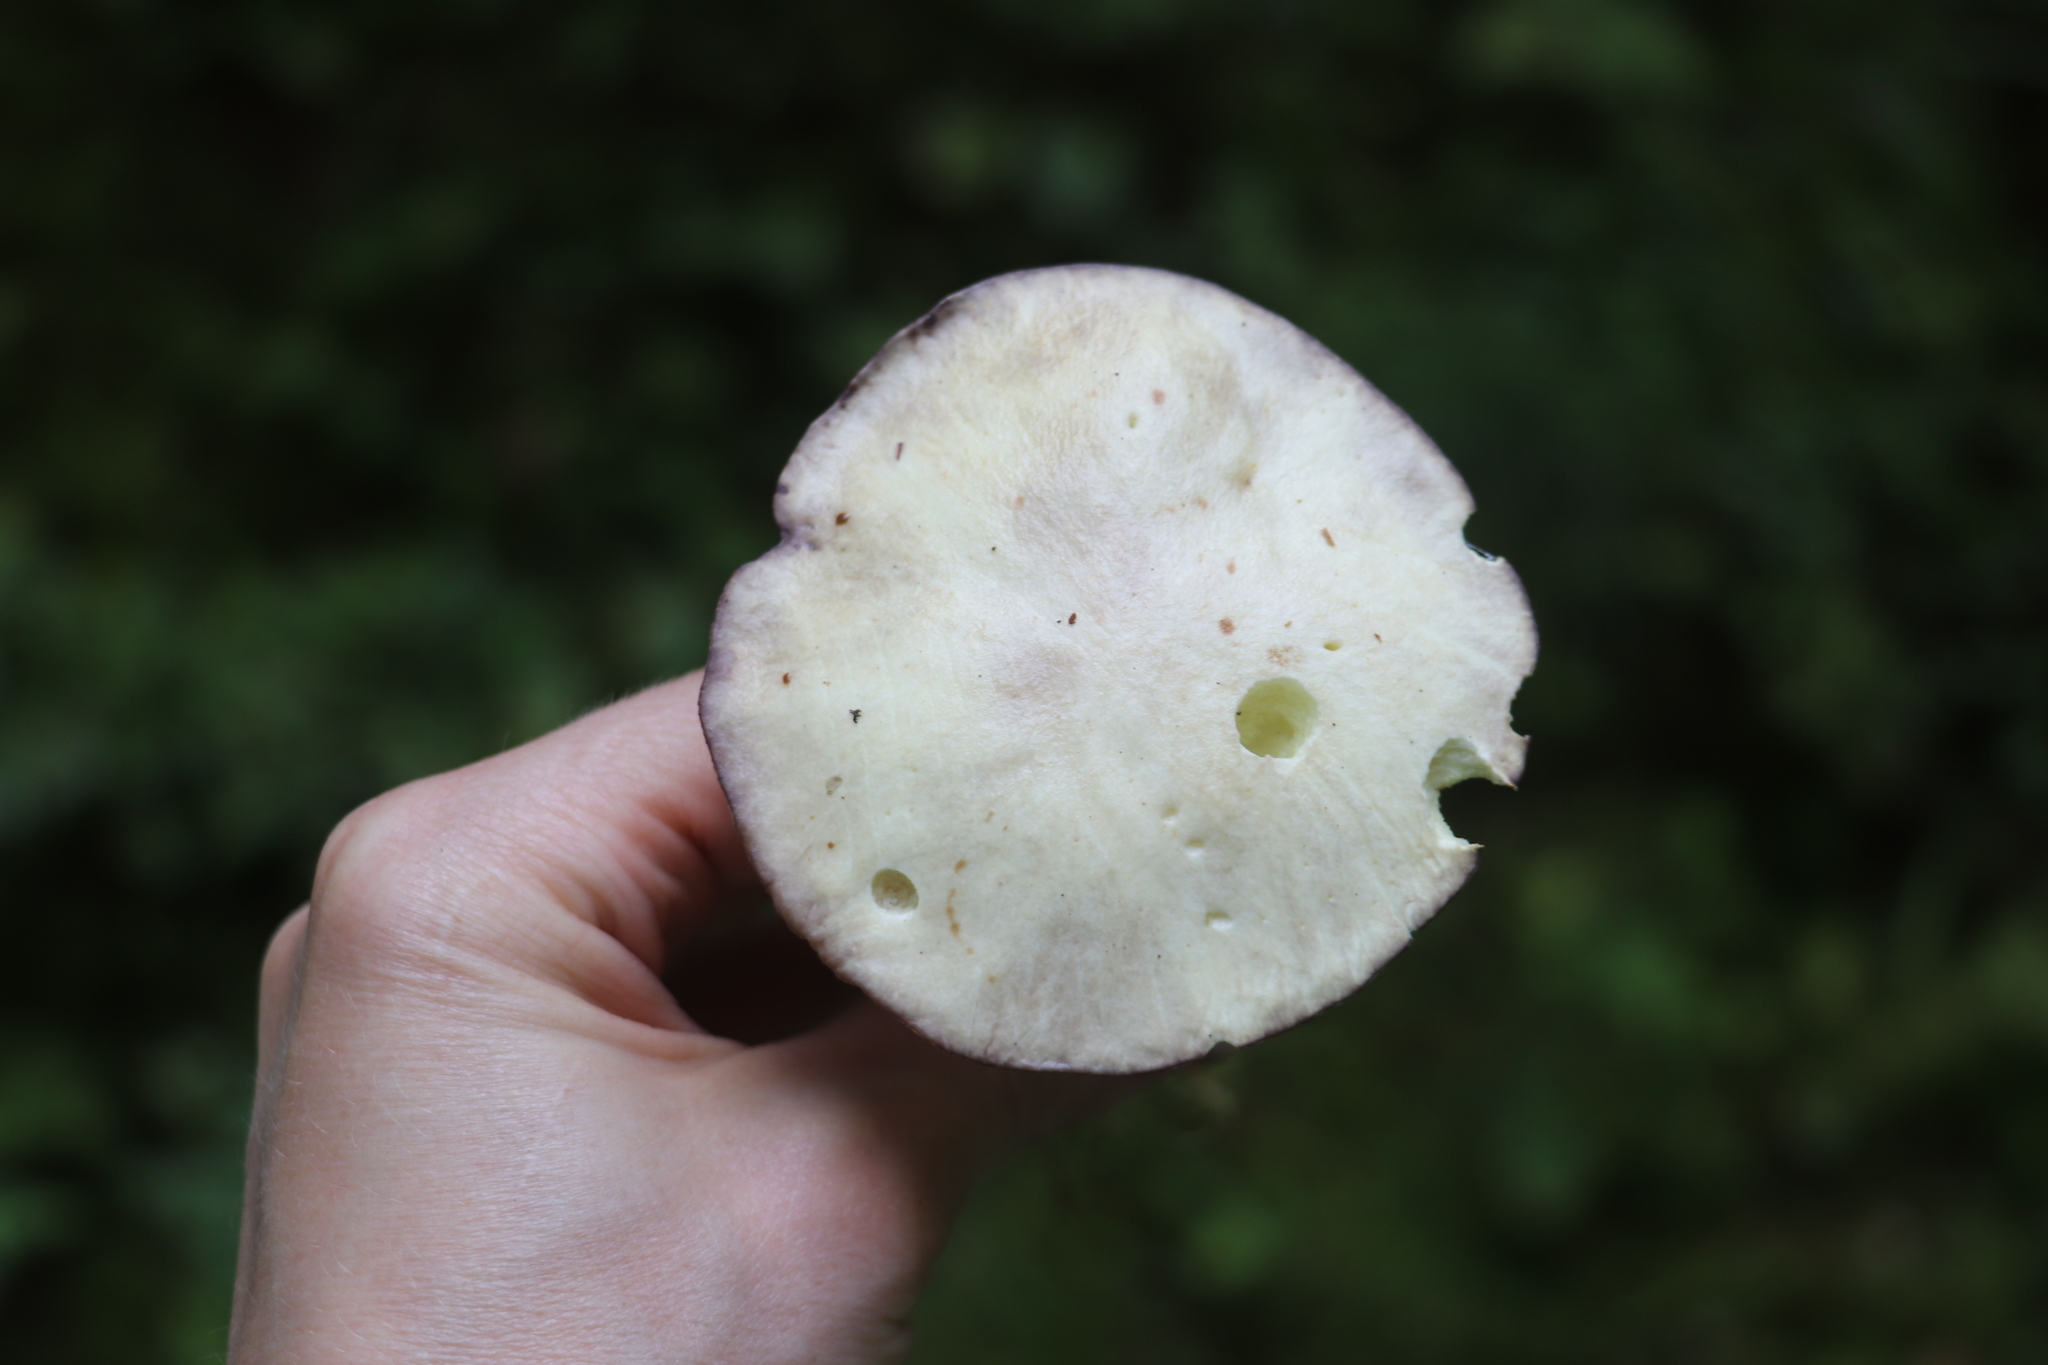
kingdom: Fungi
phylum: Basidiomycota
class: Agaricomycetes
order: Boletales
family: Suillaceae
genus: Suillus
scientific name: Suillus placidus
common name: Slippery white bolete
